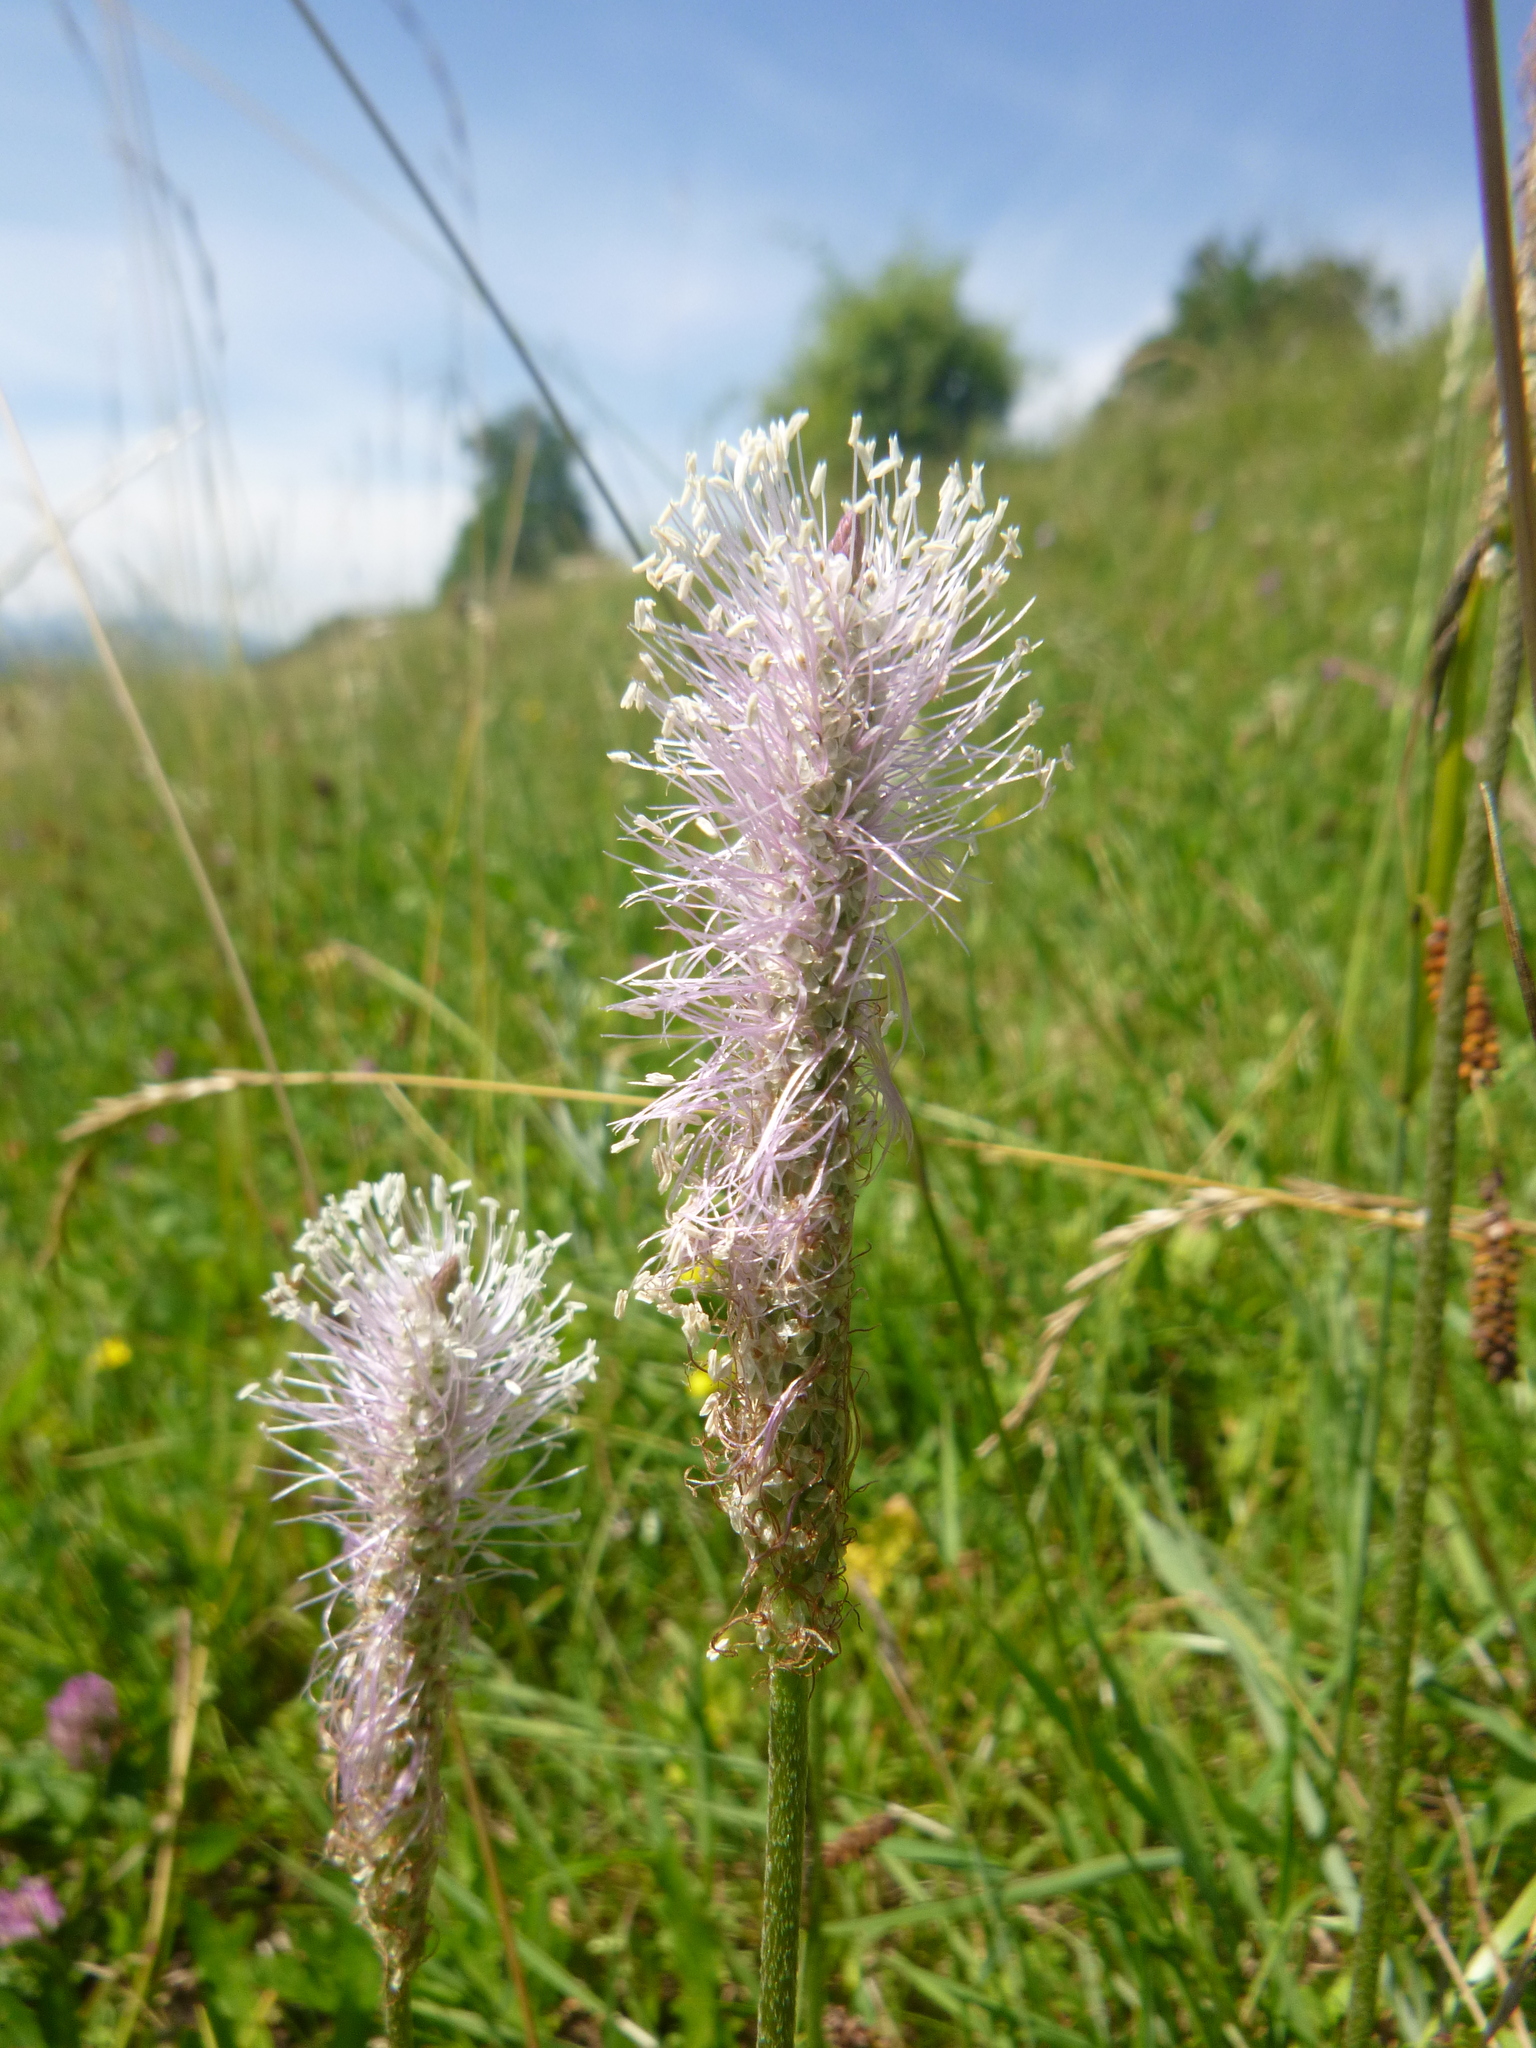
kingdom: Plantae
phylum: Tracheophyta
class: Magnoliopsida
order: Lamiales
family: Plantaginaceae
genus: Plantago
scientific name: Plantago media
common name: Hoary plantain
